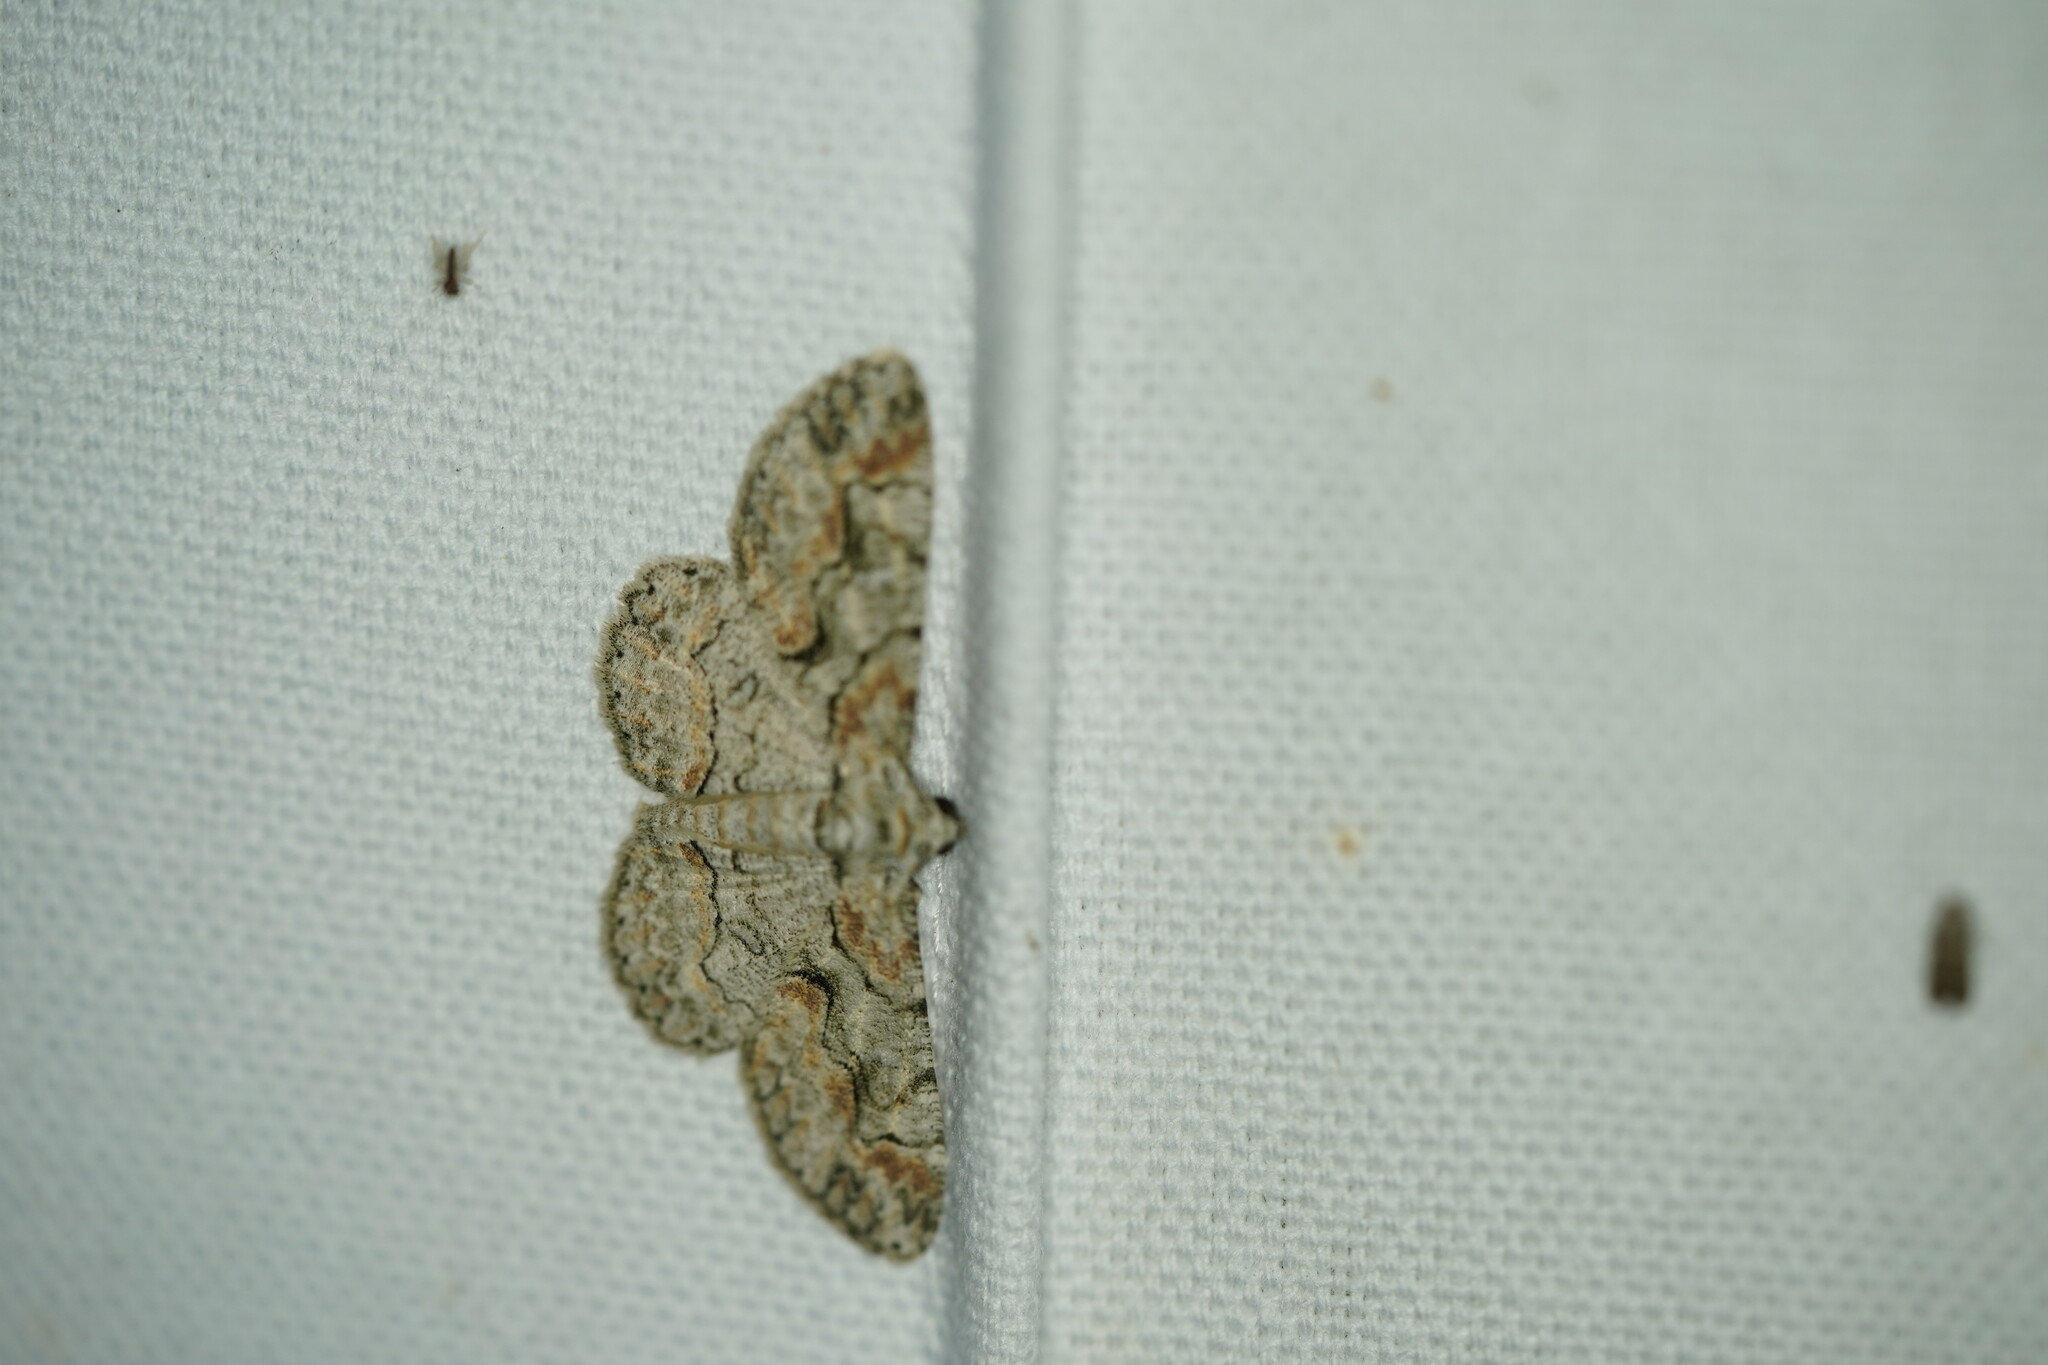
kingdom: Animalia
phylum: Arthropoda
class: Insecta
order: Lepidoptera
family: Geometridae
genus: Iridopsis
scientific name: Iridopsis defectaria
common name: Brown-shaded gray
